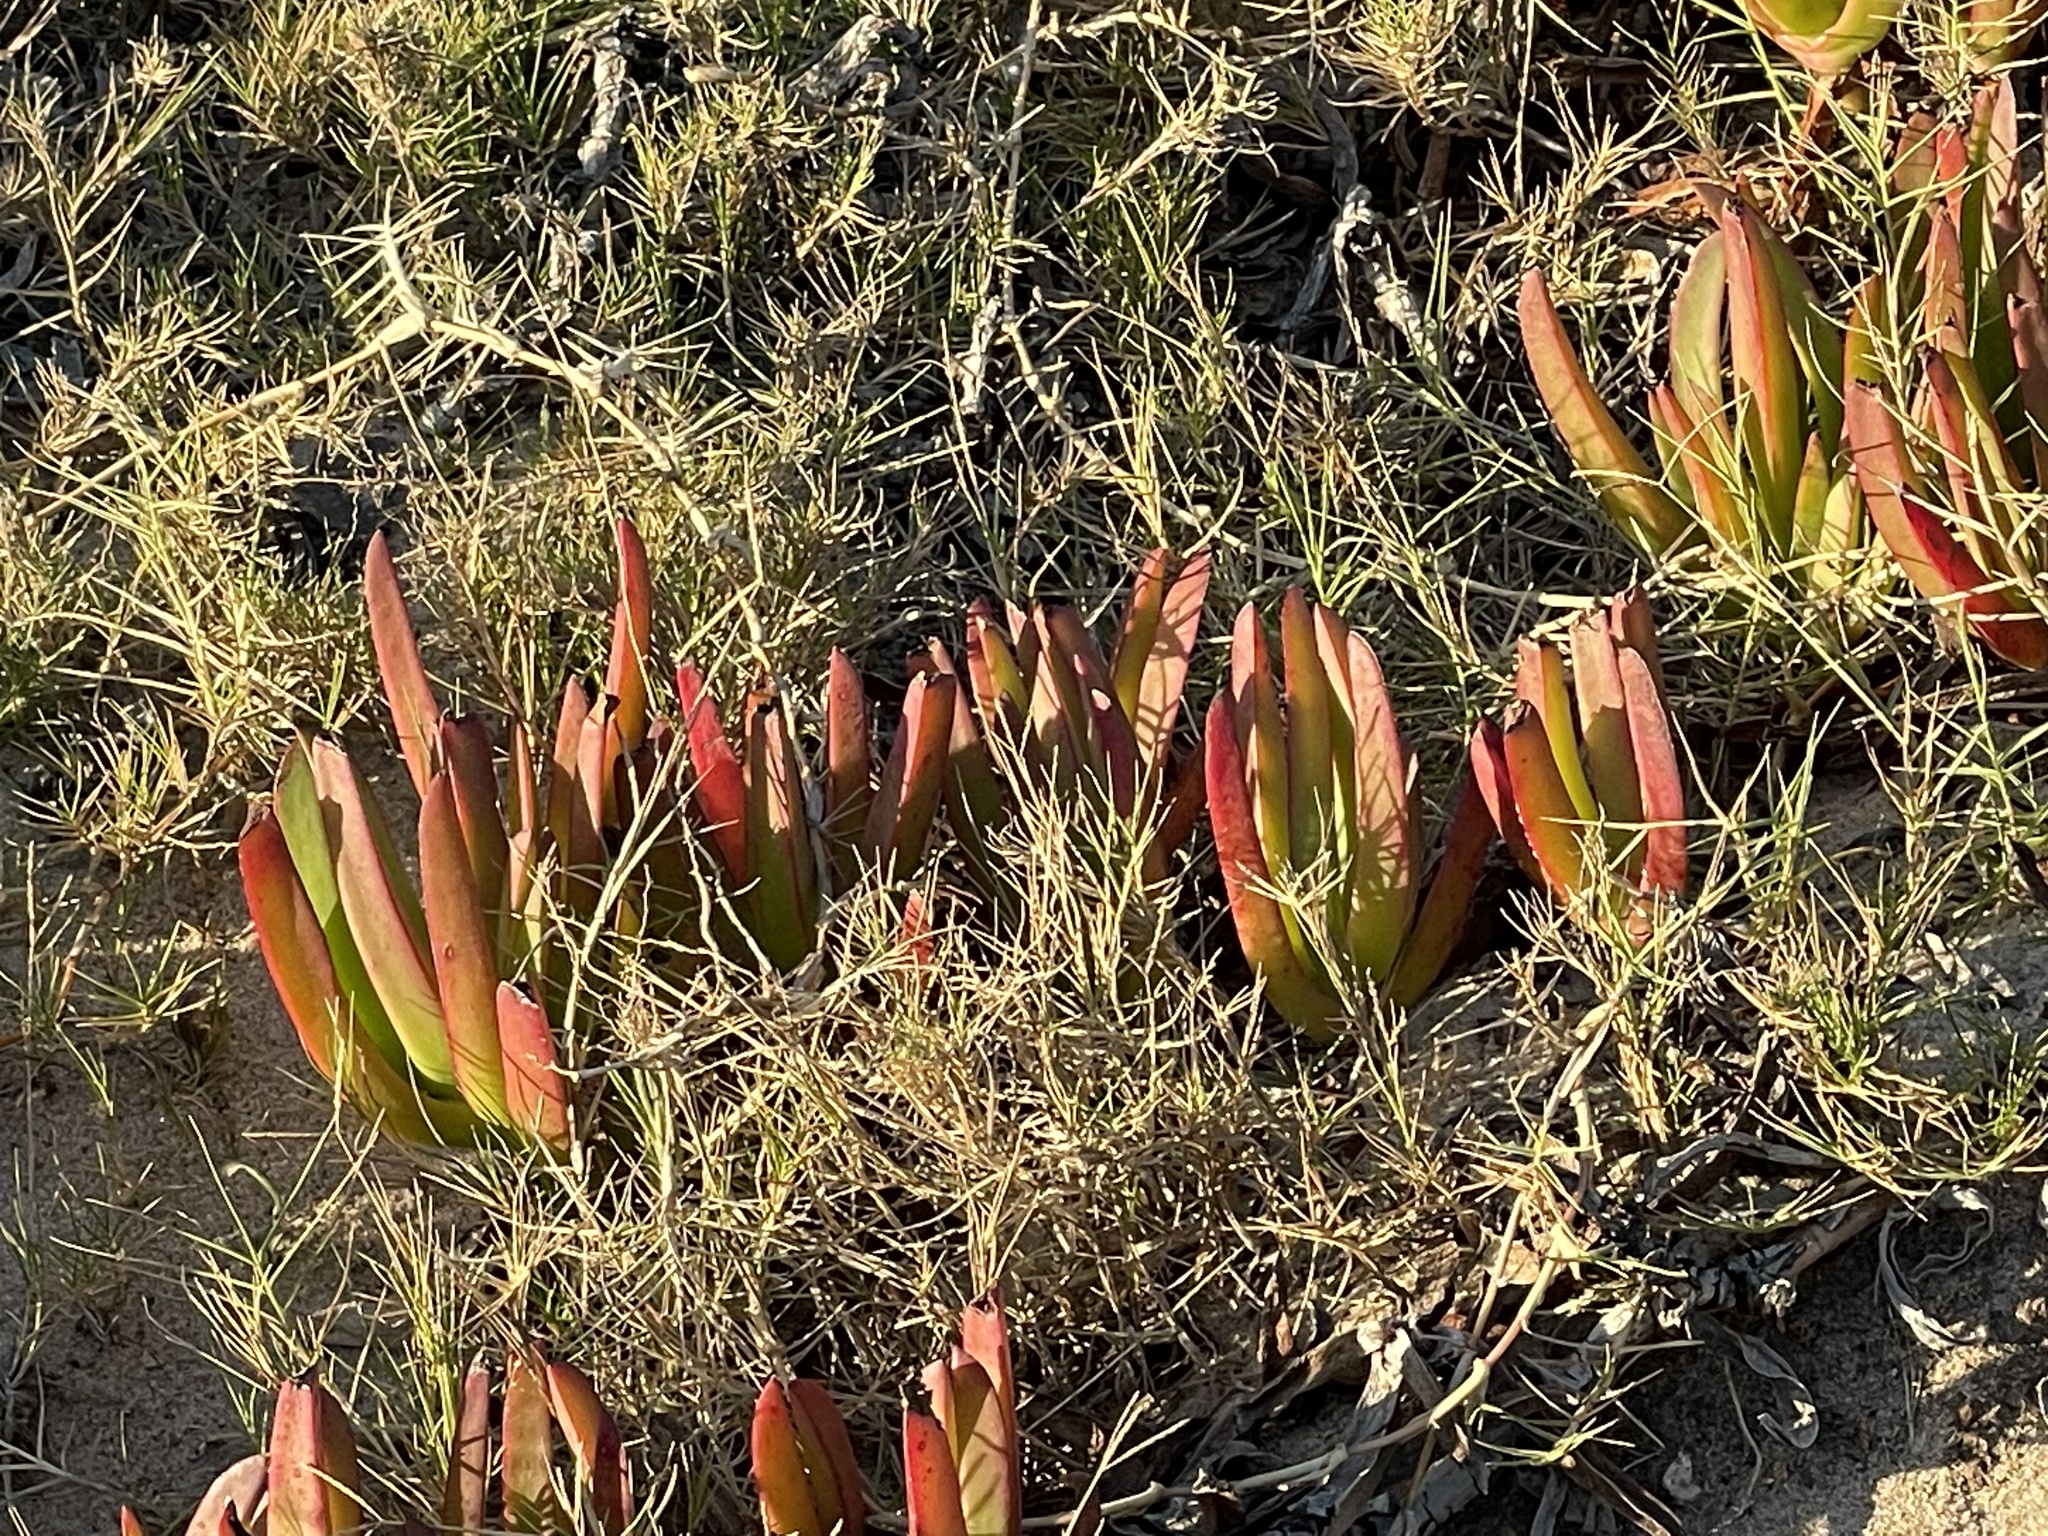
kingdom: Plantae
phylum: Tracheophyta
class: Magnoliopsida
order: Caryophyllales
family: Aizoaceae
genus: Carpobrotus
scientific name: Carpobrotus edulis
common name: Hottentot-fig
